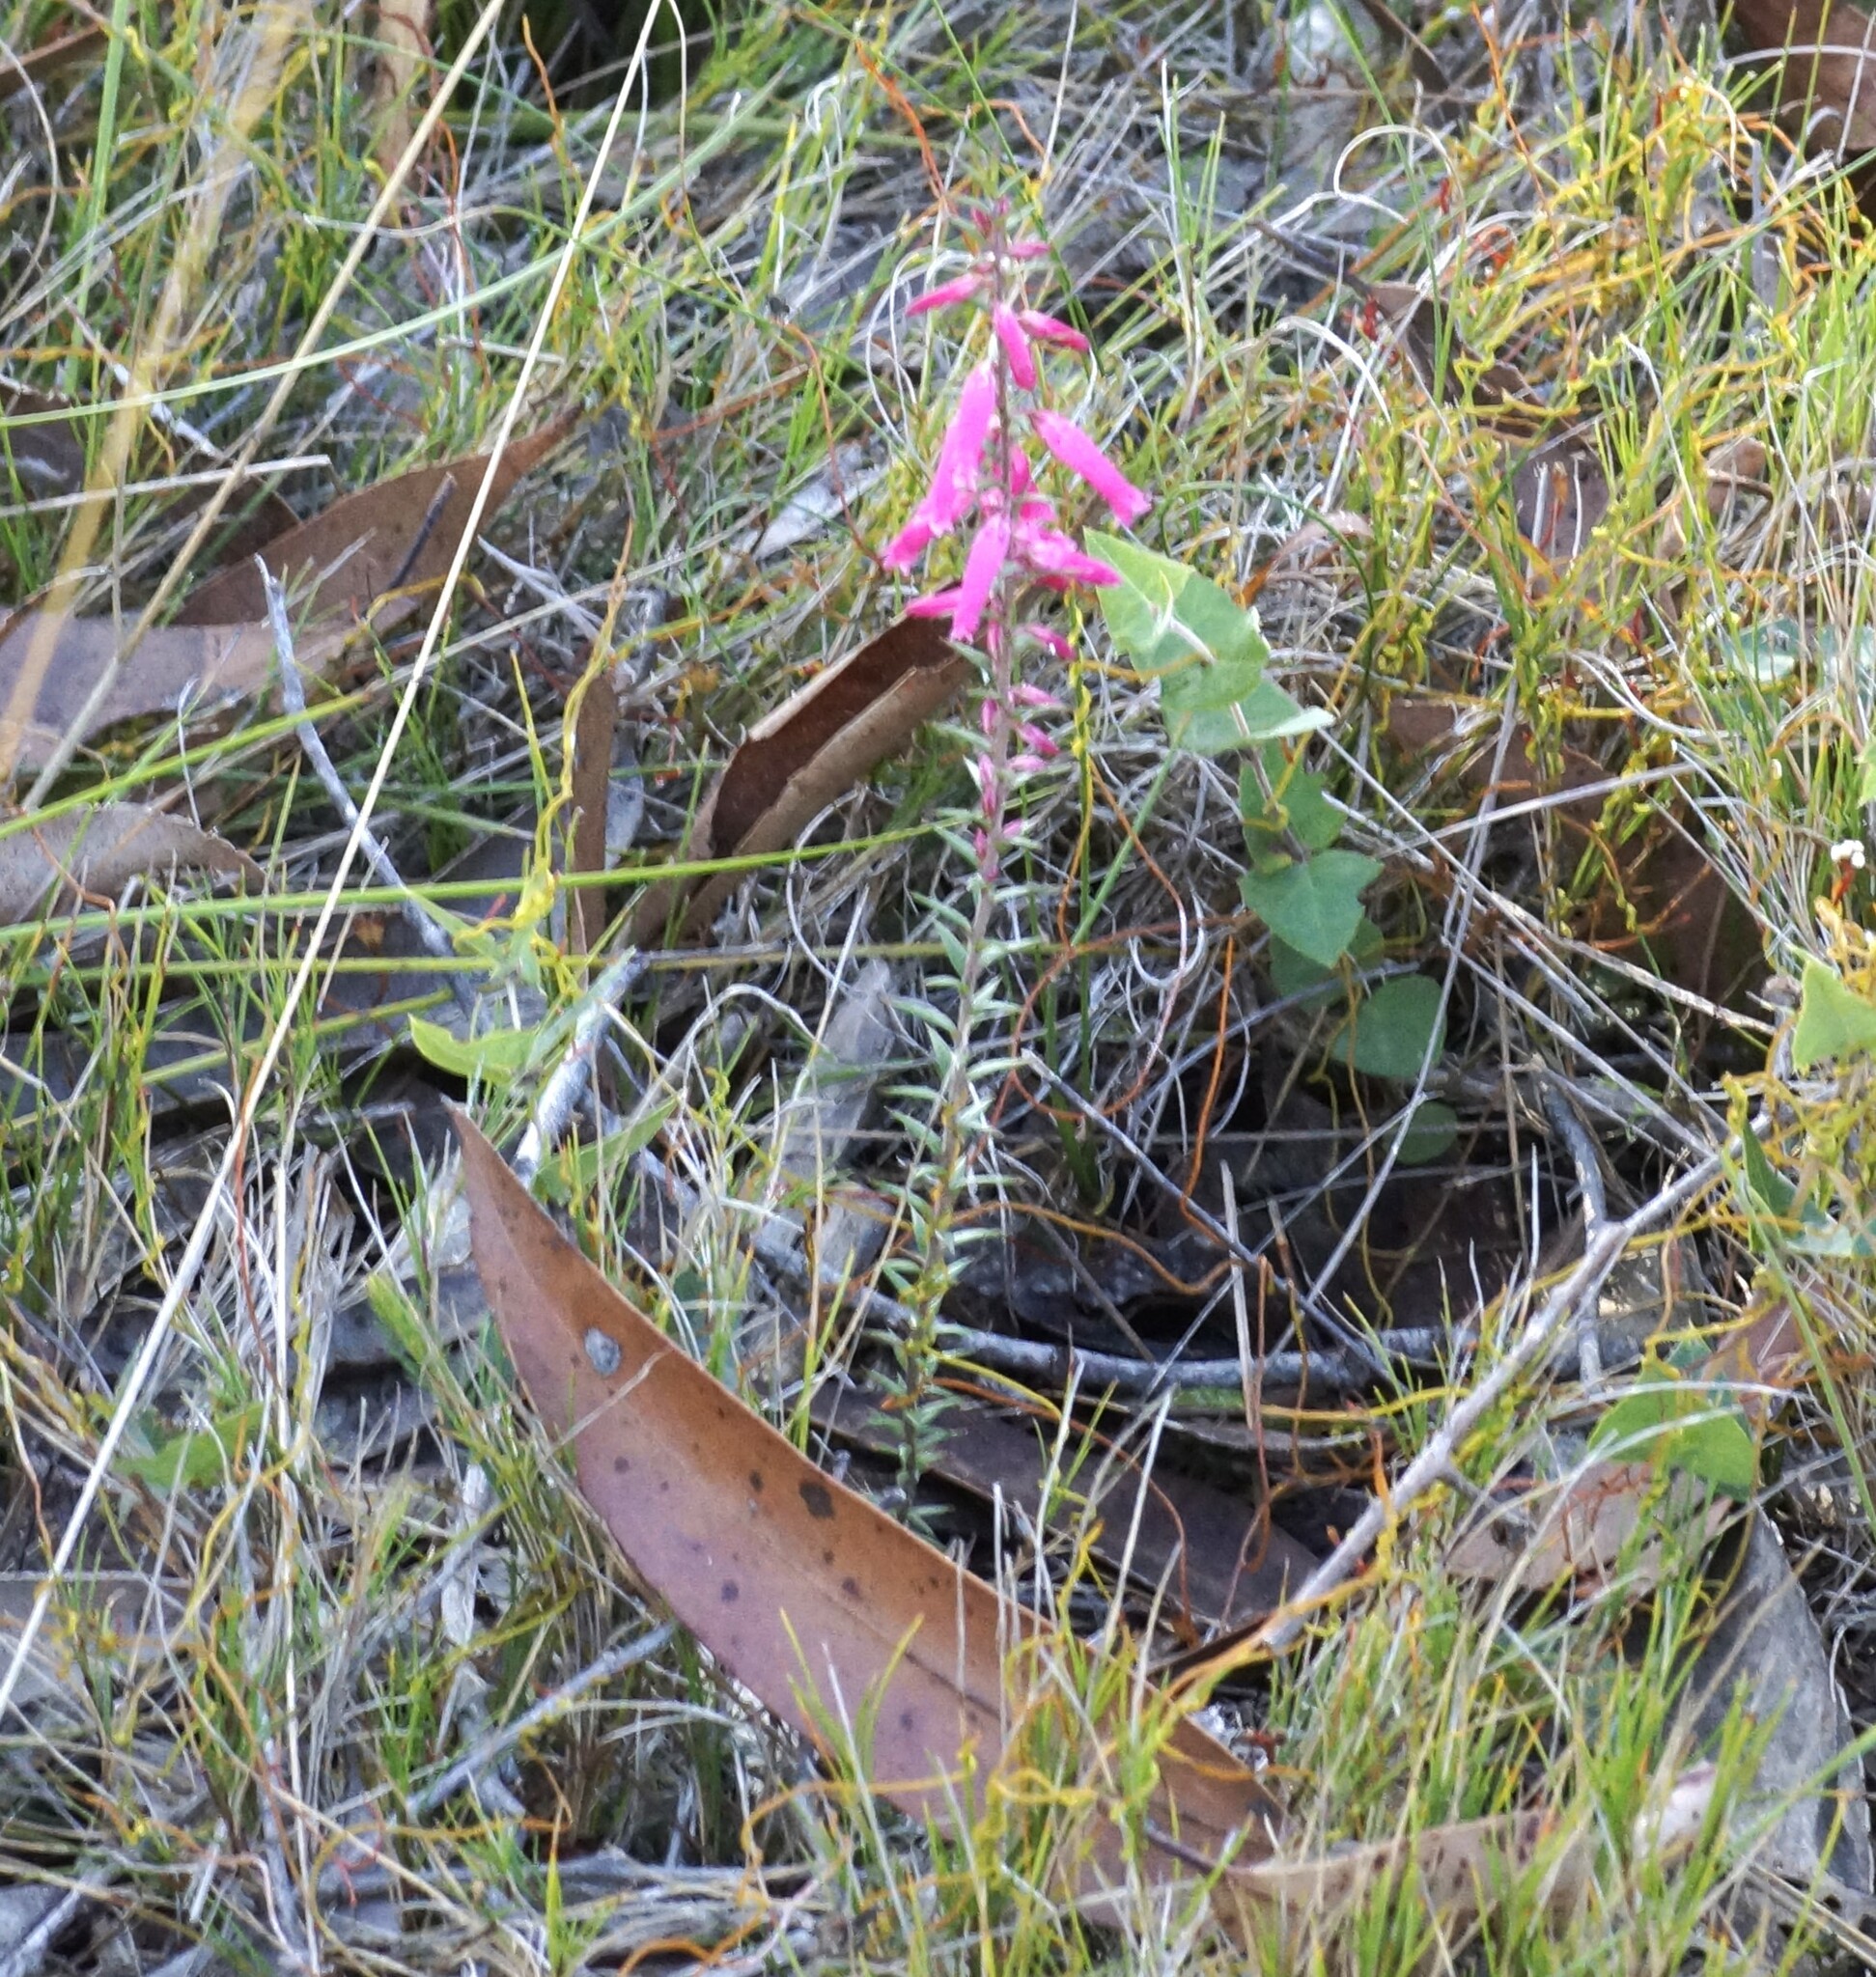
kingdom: Plantae
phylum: Tracheophyta
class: Magnoliopsida
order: Ericales
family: Ericaceae
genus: Epacris
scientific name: Epacris impressa
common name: Common-heath
